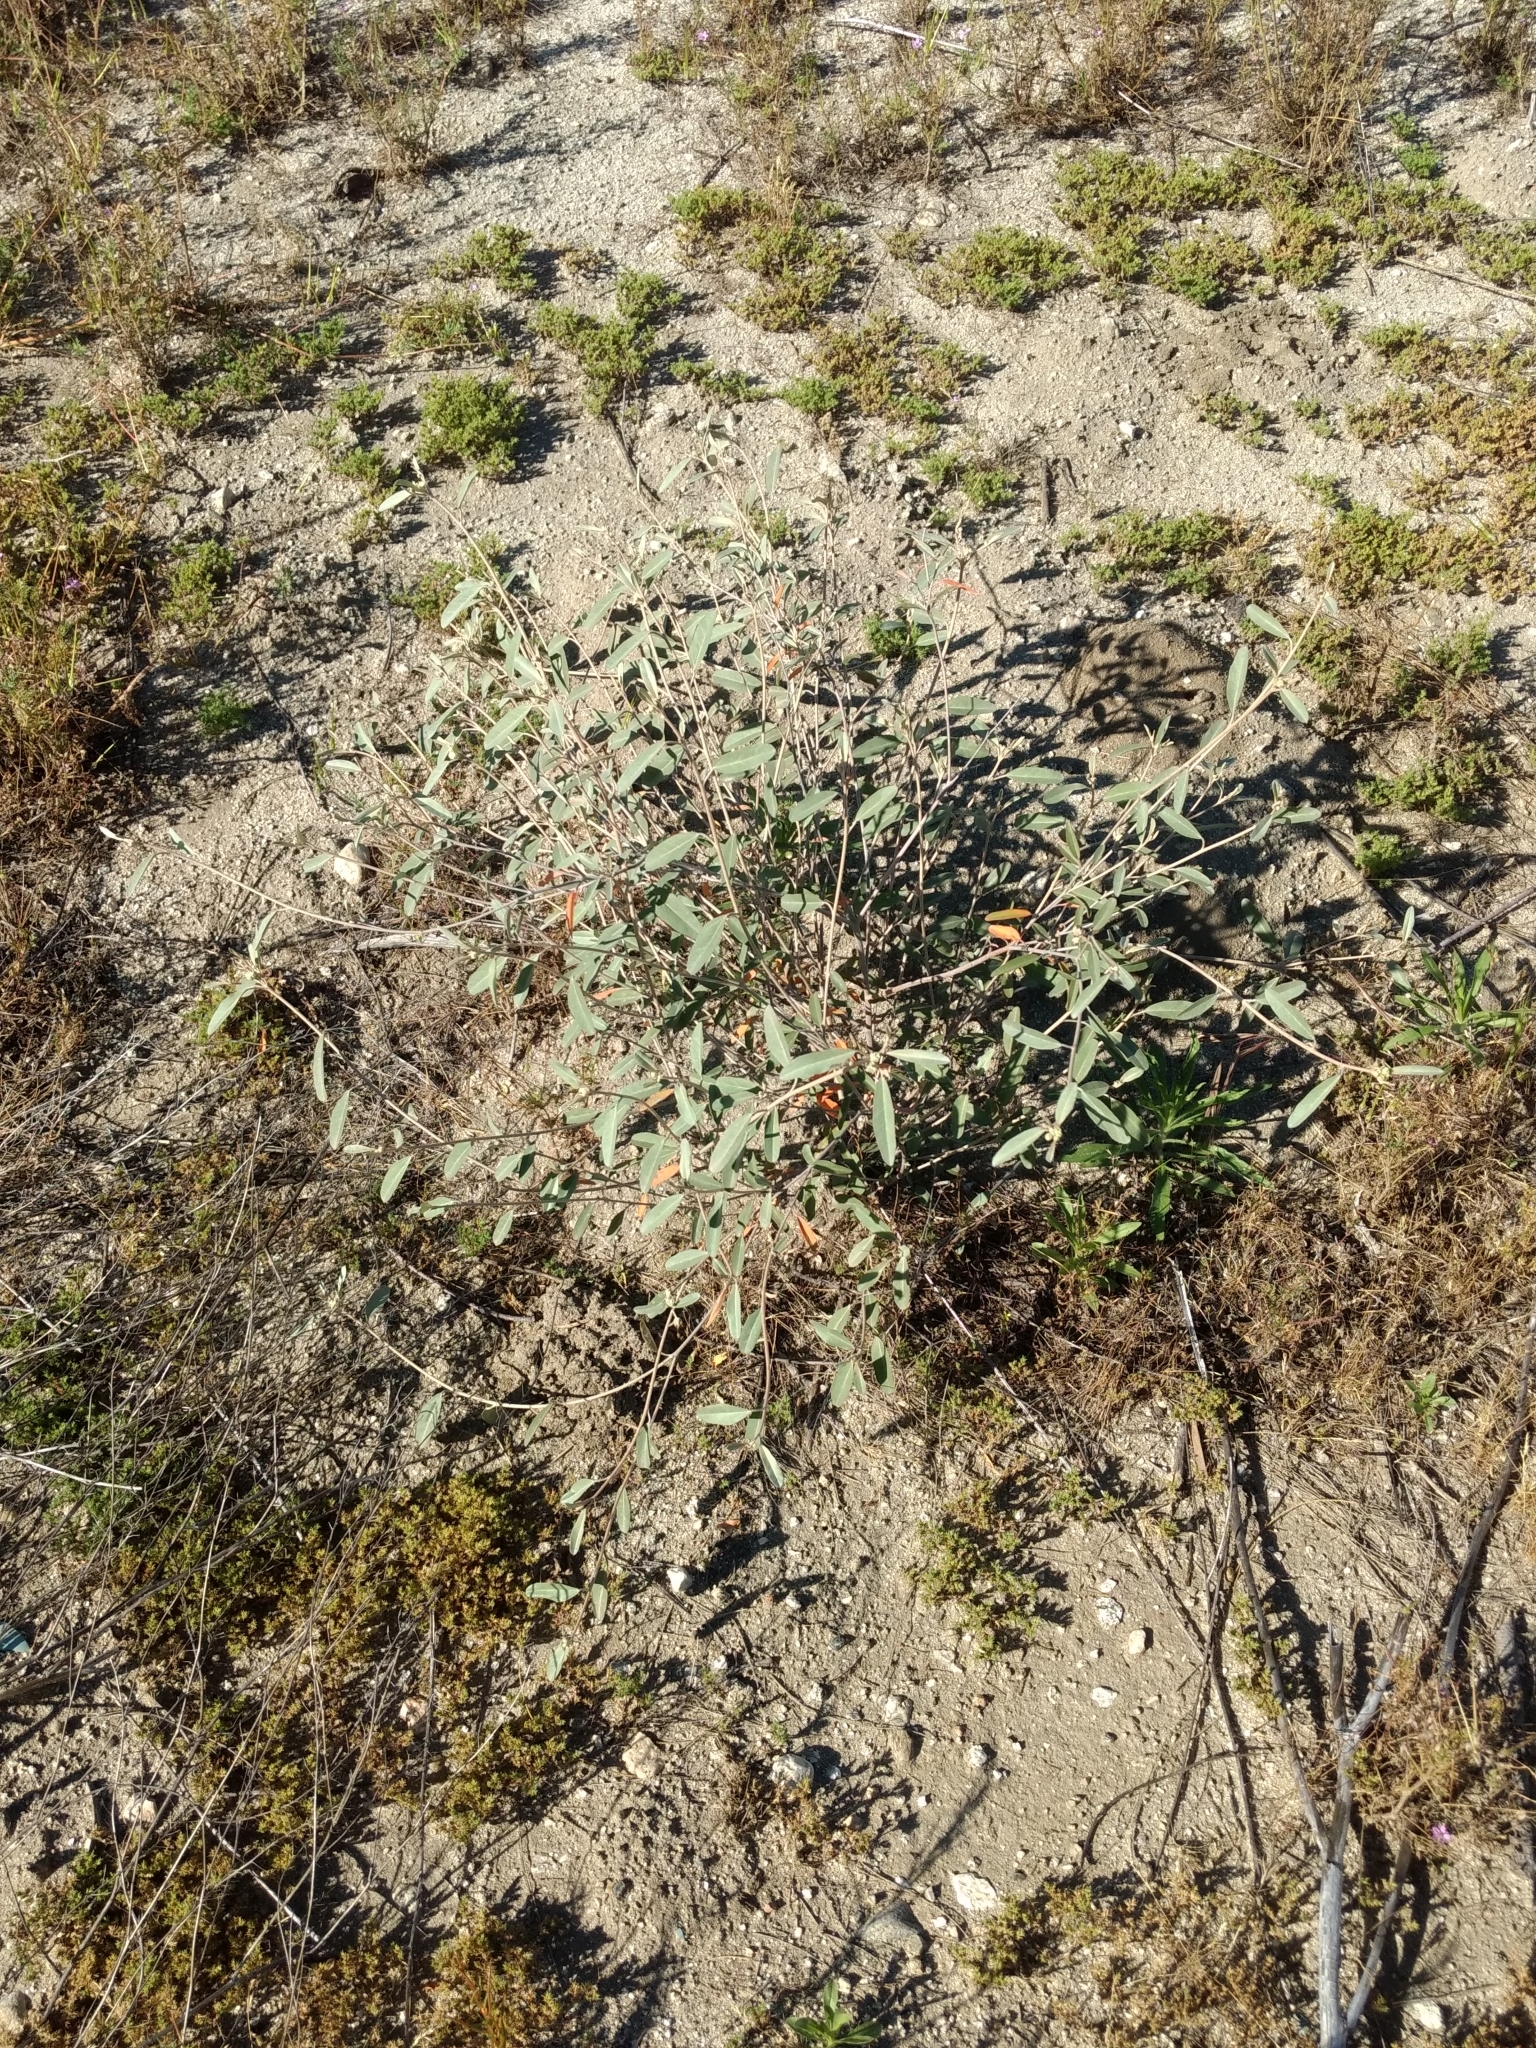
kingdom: Plantae
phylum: Tracheophyta
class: Magnoliopsida
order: Malpighiales
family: Euphorbiaceae
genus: Croton
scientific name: Croton californicus
